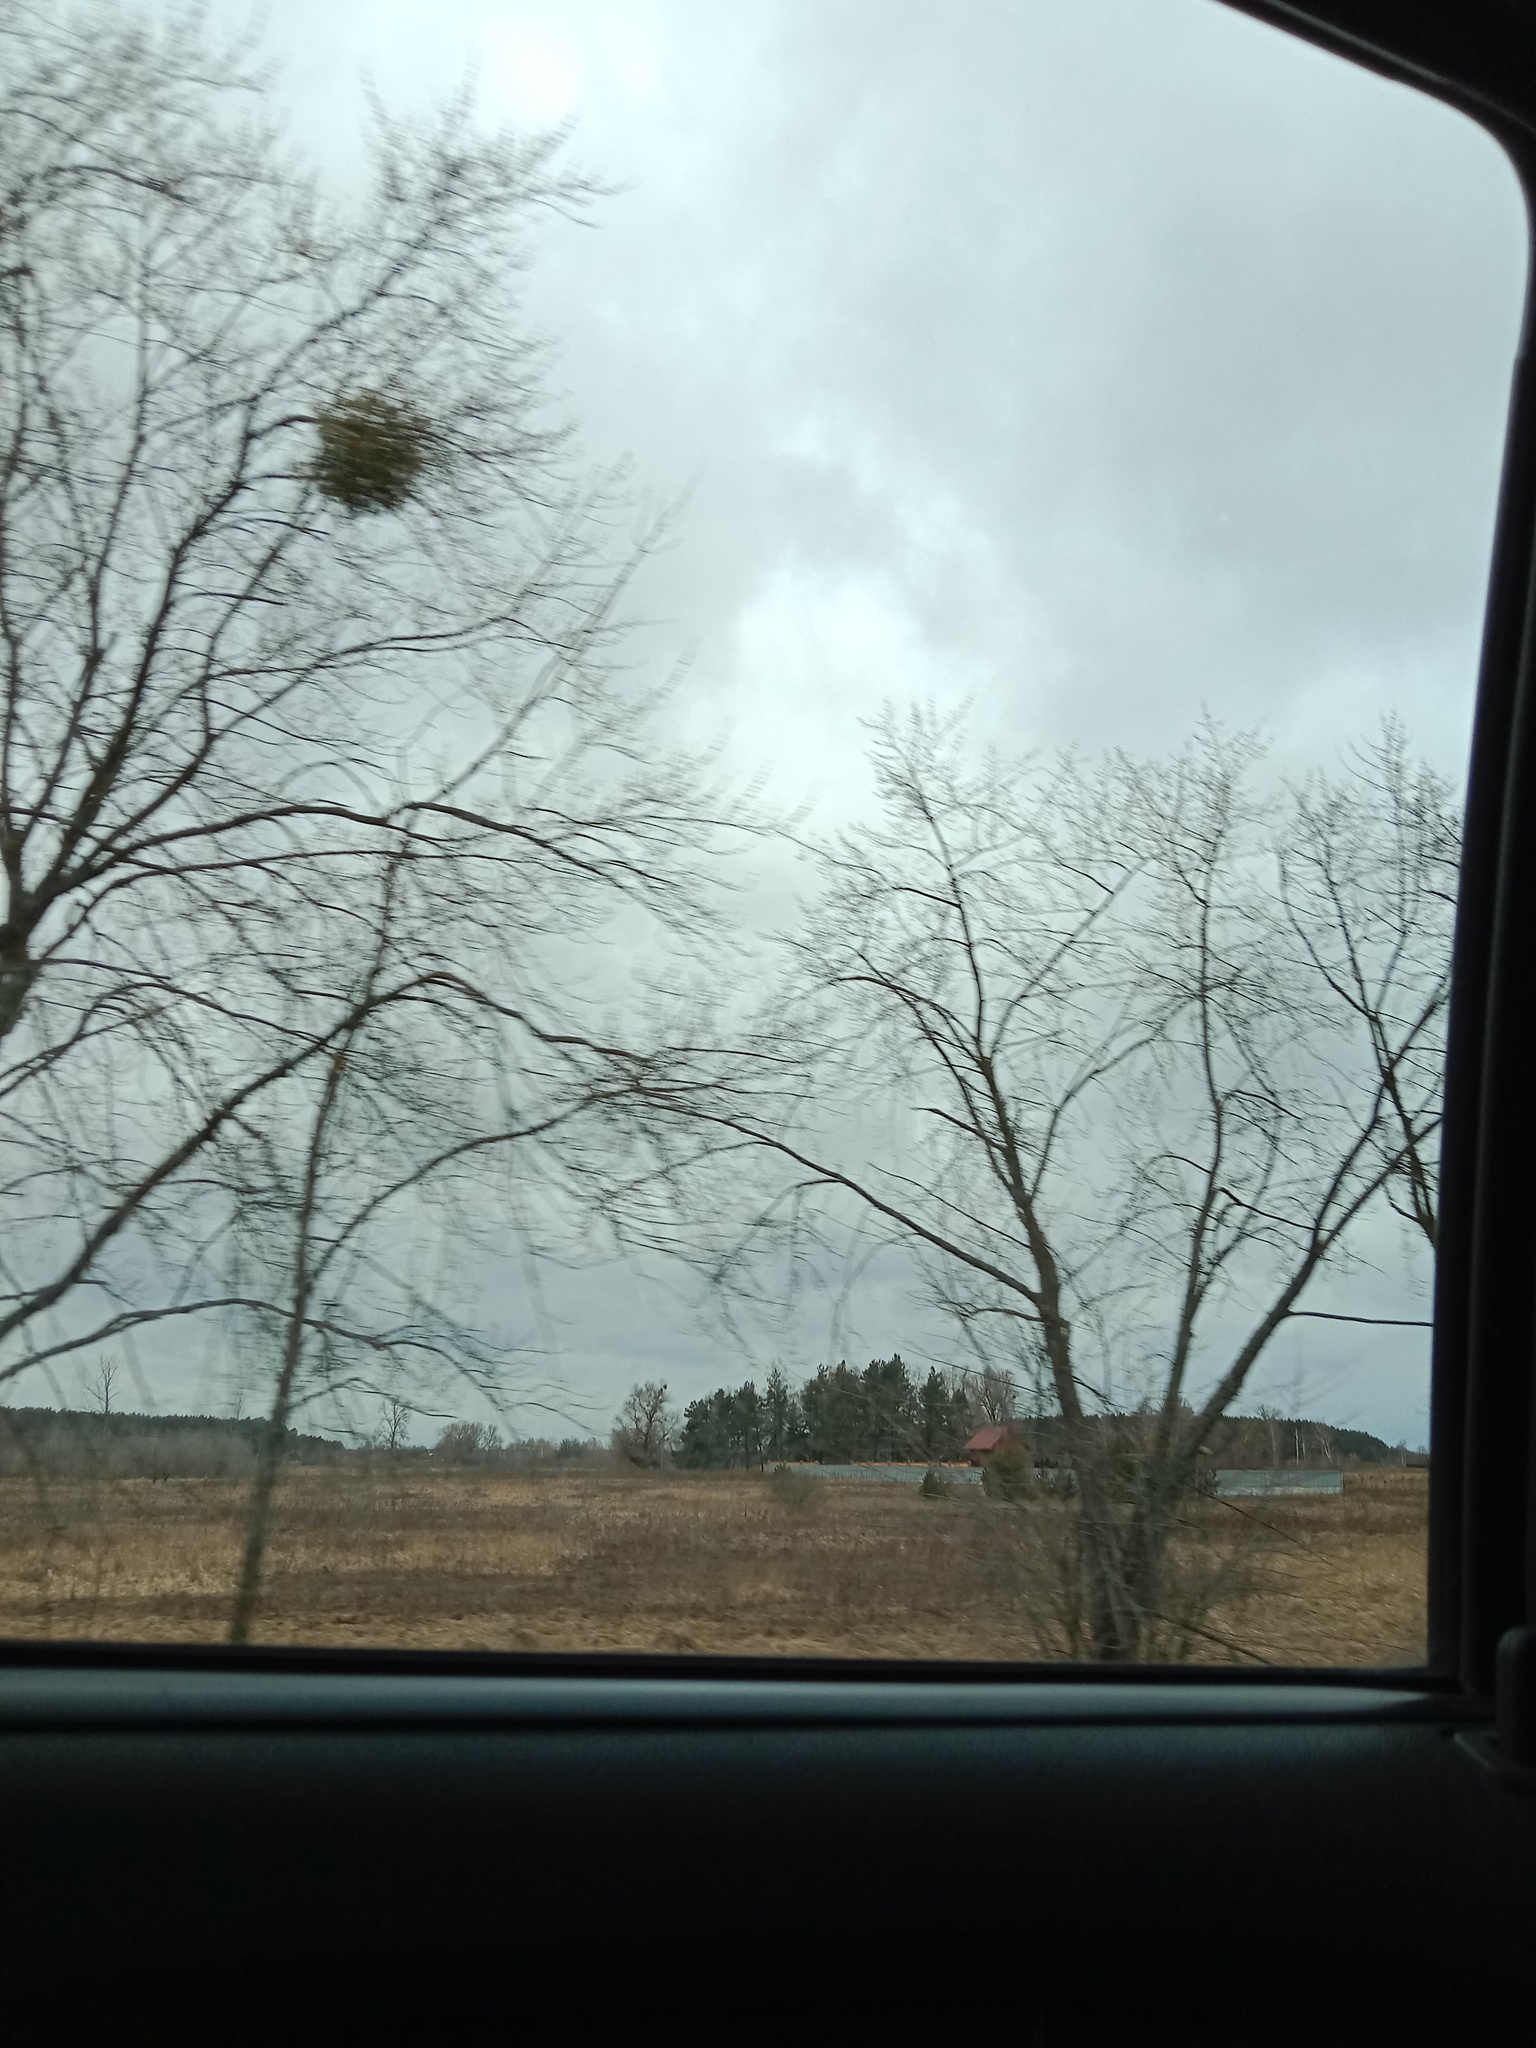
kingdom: Plantae
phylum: Tracheophyta
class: Magnoliopsida
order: Santalales
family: Viscaceae
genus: Viscum
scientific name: Viscum album
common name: Mistletoe
